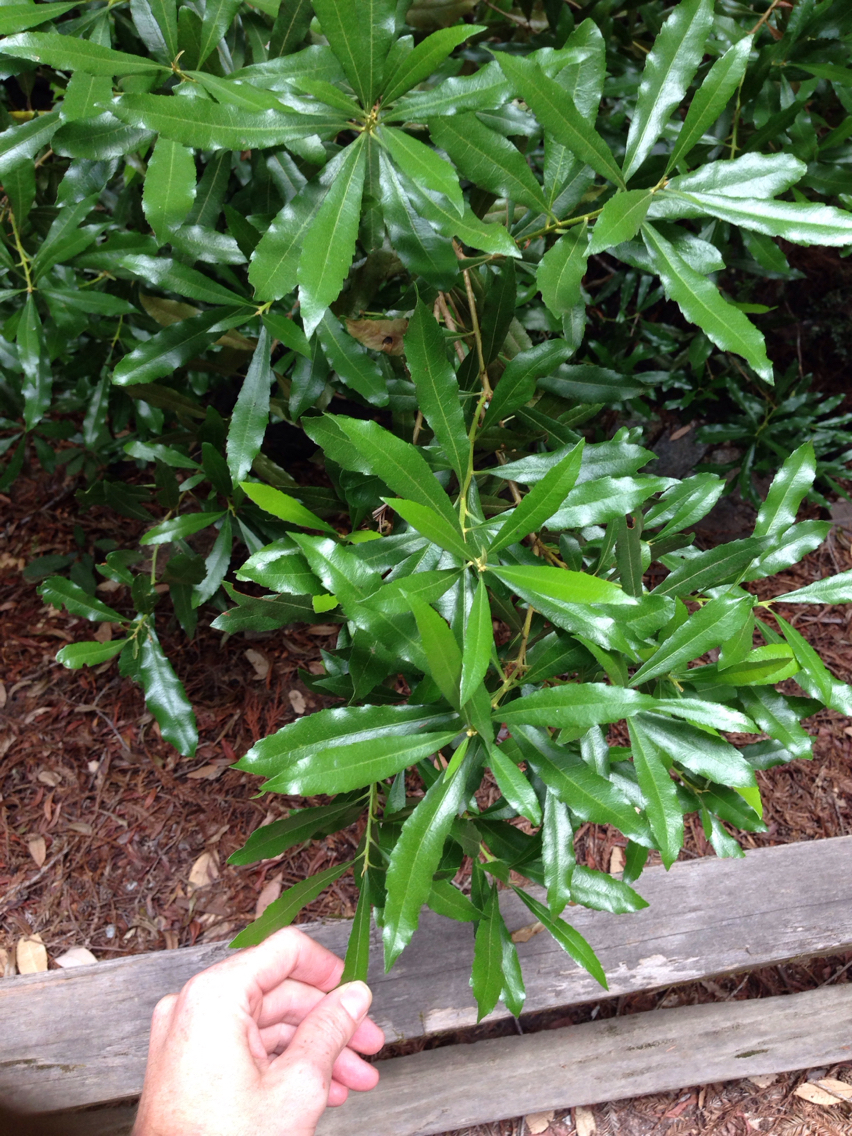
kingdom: Plantae
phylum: Tracheophyta
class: Magnoliopsida
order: Fagales
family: Myricaceae
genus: Morella
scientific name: Morella californica
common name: California wax-myrtle
